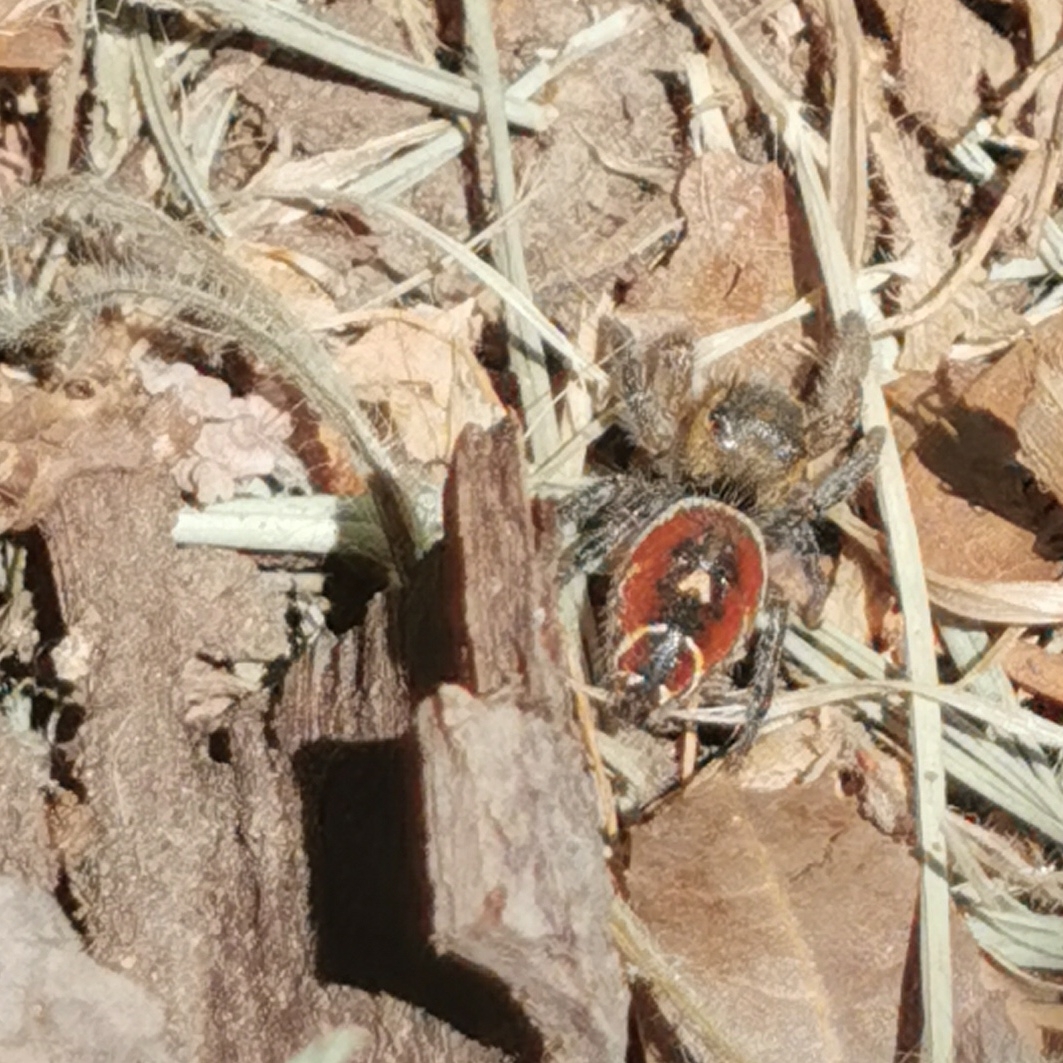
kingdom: Animalia
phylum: Arthropoda
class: Arachnida
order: Araneae
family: Salticidae
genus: Phidippus
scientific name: Phidippus cruentus
